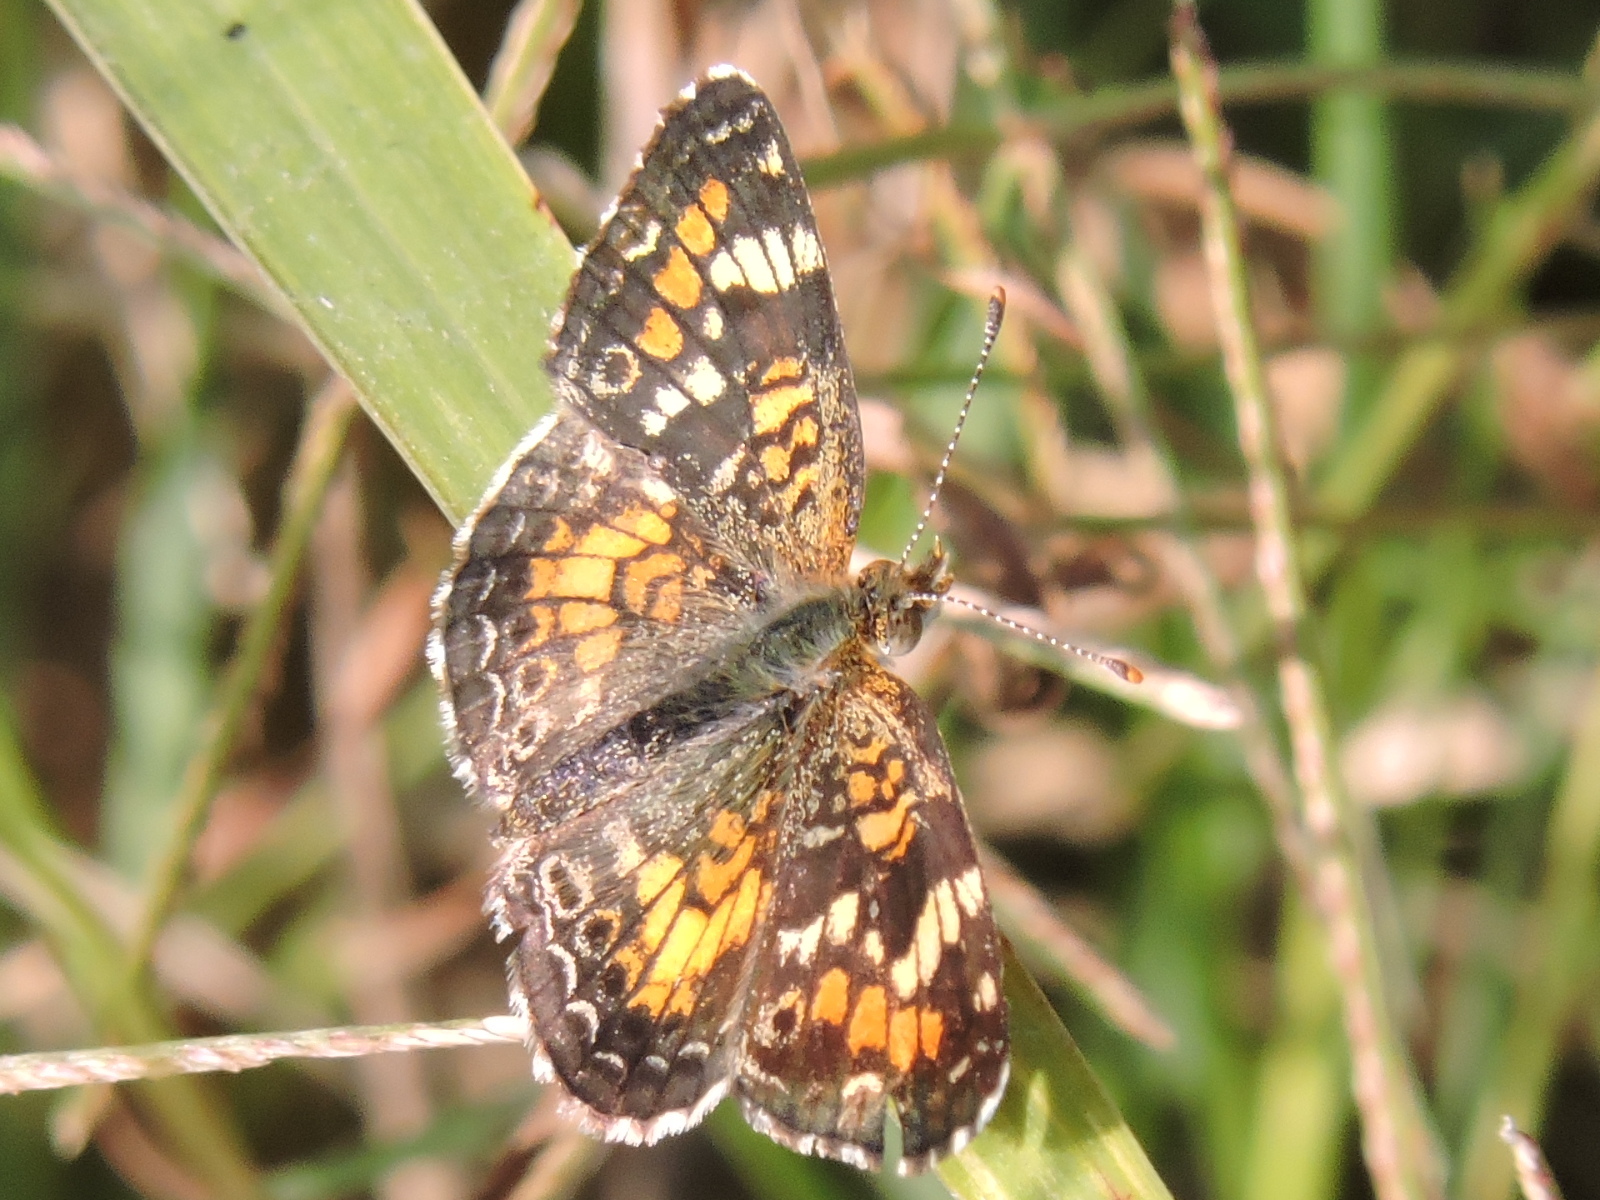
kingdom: Animalia
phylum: Arthropoda
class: Insecta
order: Lepidoptera
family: Nymphalidae
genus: Phyciodes
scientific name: Phyciodes phaon
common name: Phaon crescent
